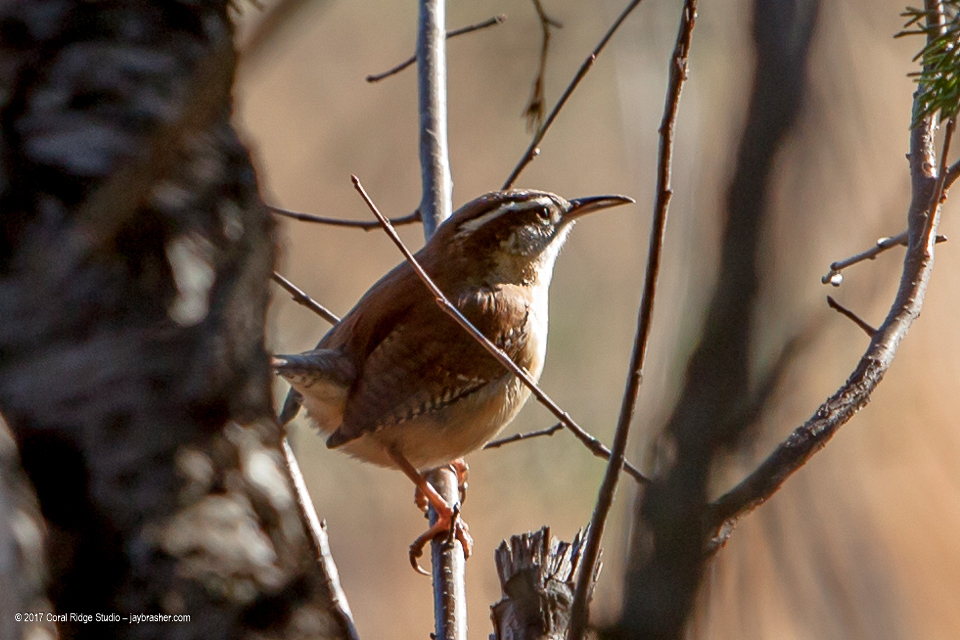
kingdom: Animalia
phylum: Chordata
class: Aves
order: Passeriformes
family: Troglodytidae
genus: Thryothorus
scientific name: Thryothorus ludovicianus
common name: Carolina wren
